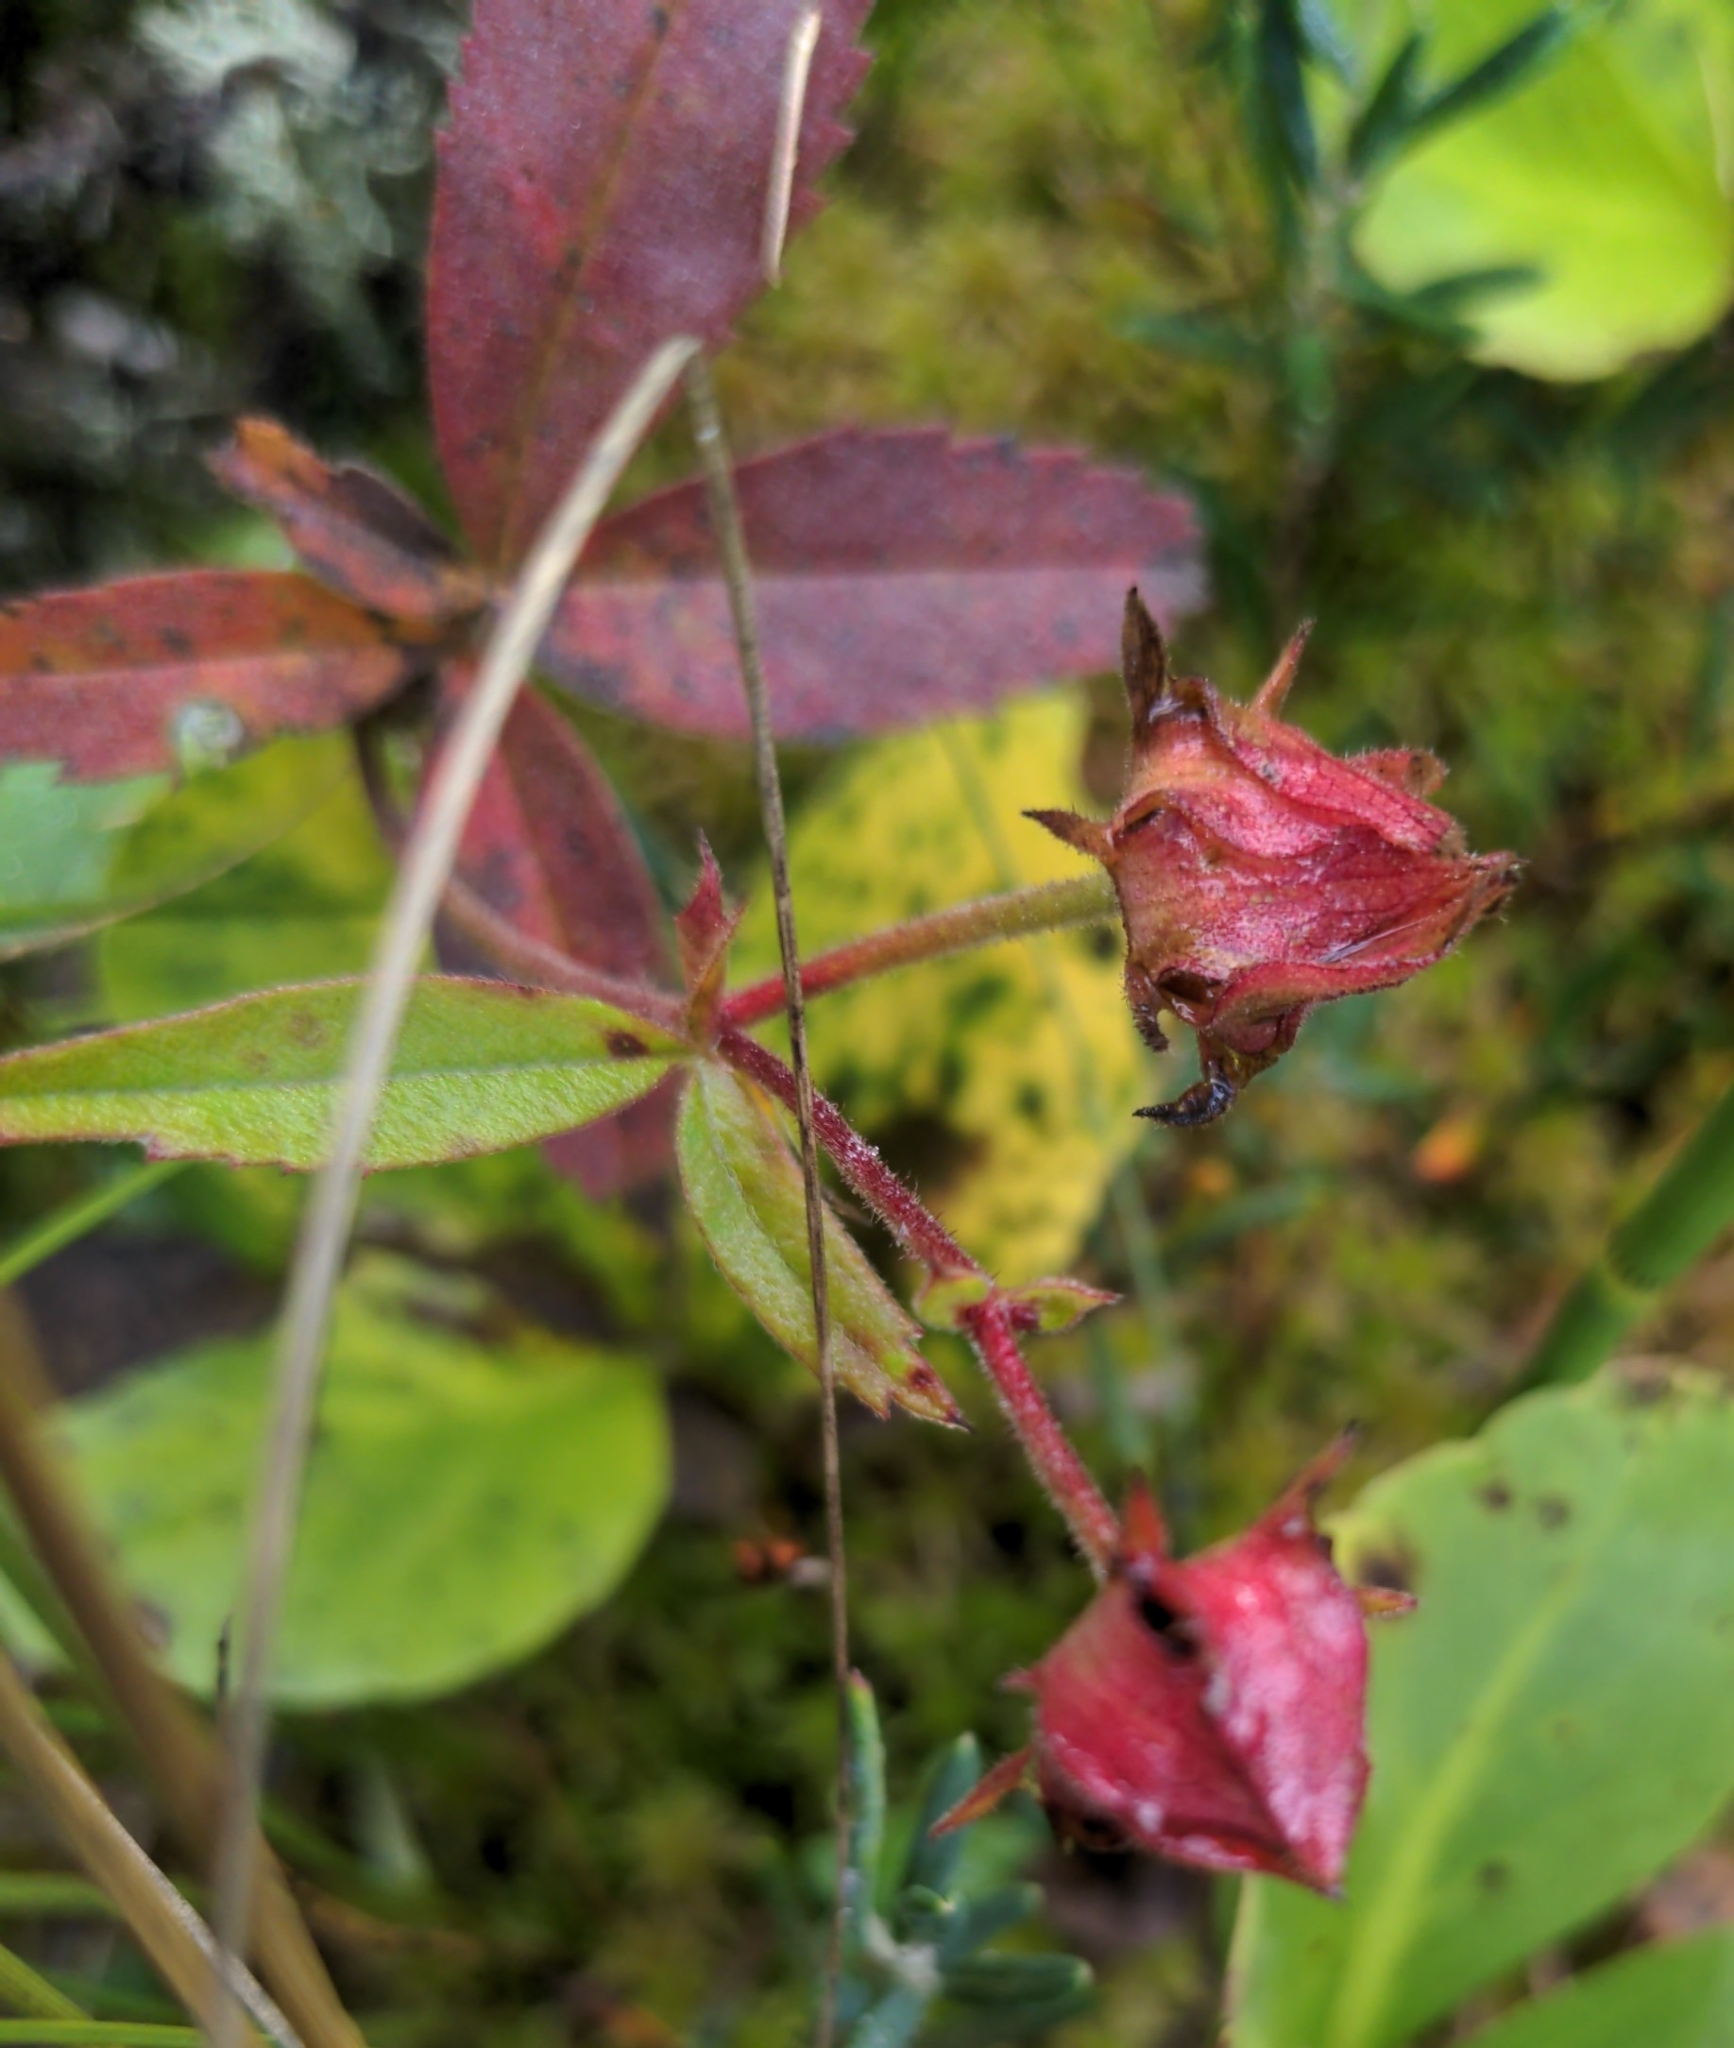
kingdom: Plantae
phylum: Tracheophyta
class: Magnoliopsida
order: Rosales
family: Rosaceae
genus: Comarum
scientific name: Comarum palustre
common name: Marsh cinquefoil
